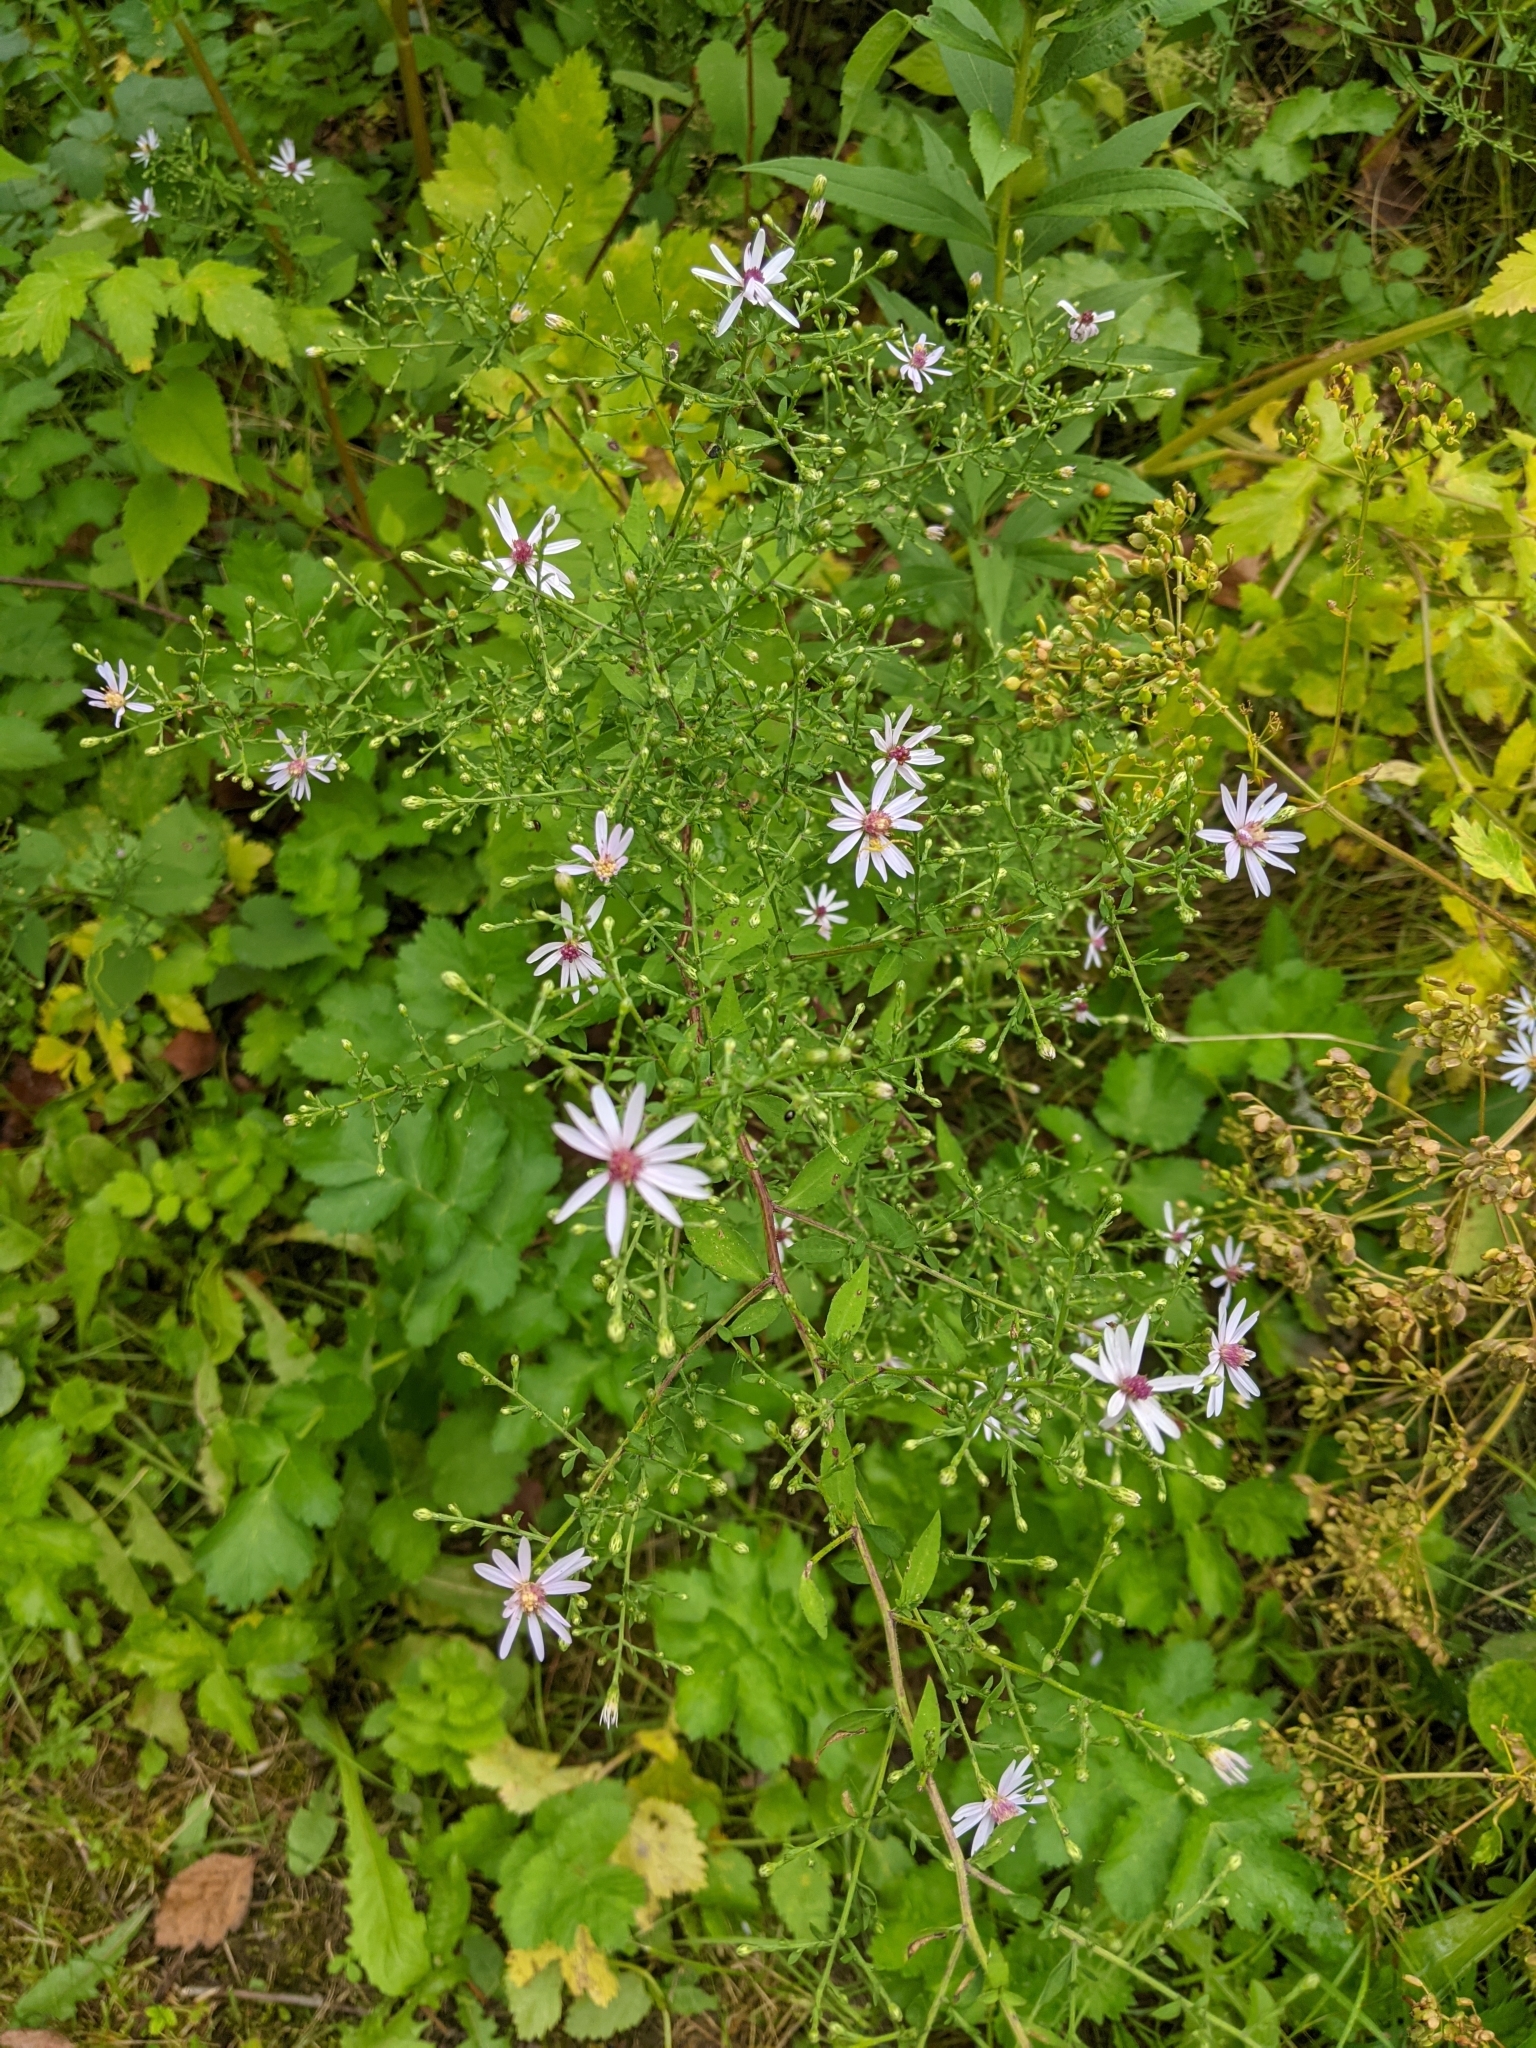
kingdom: Plantae
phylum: Tracheophyta
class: Magnoliopsida
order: Asterales
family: Asteraceae
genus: Symphyotrichum
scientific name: Symphyotrichum cordifolium
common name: Beeweed
